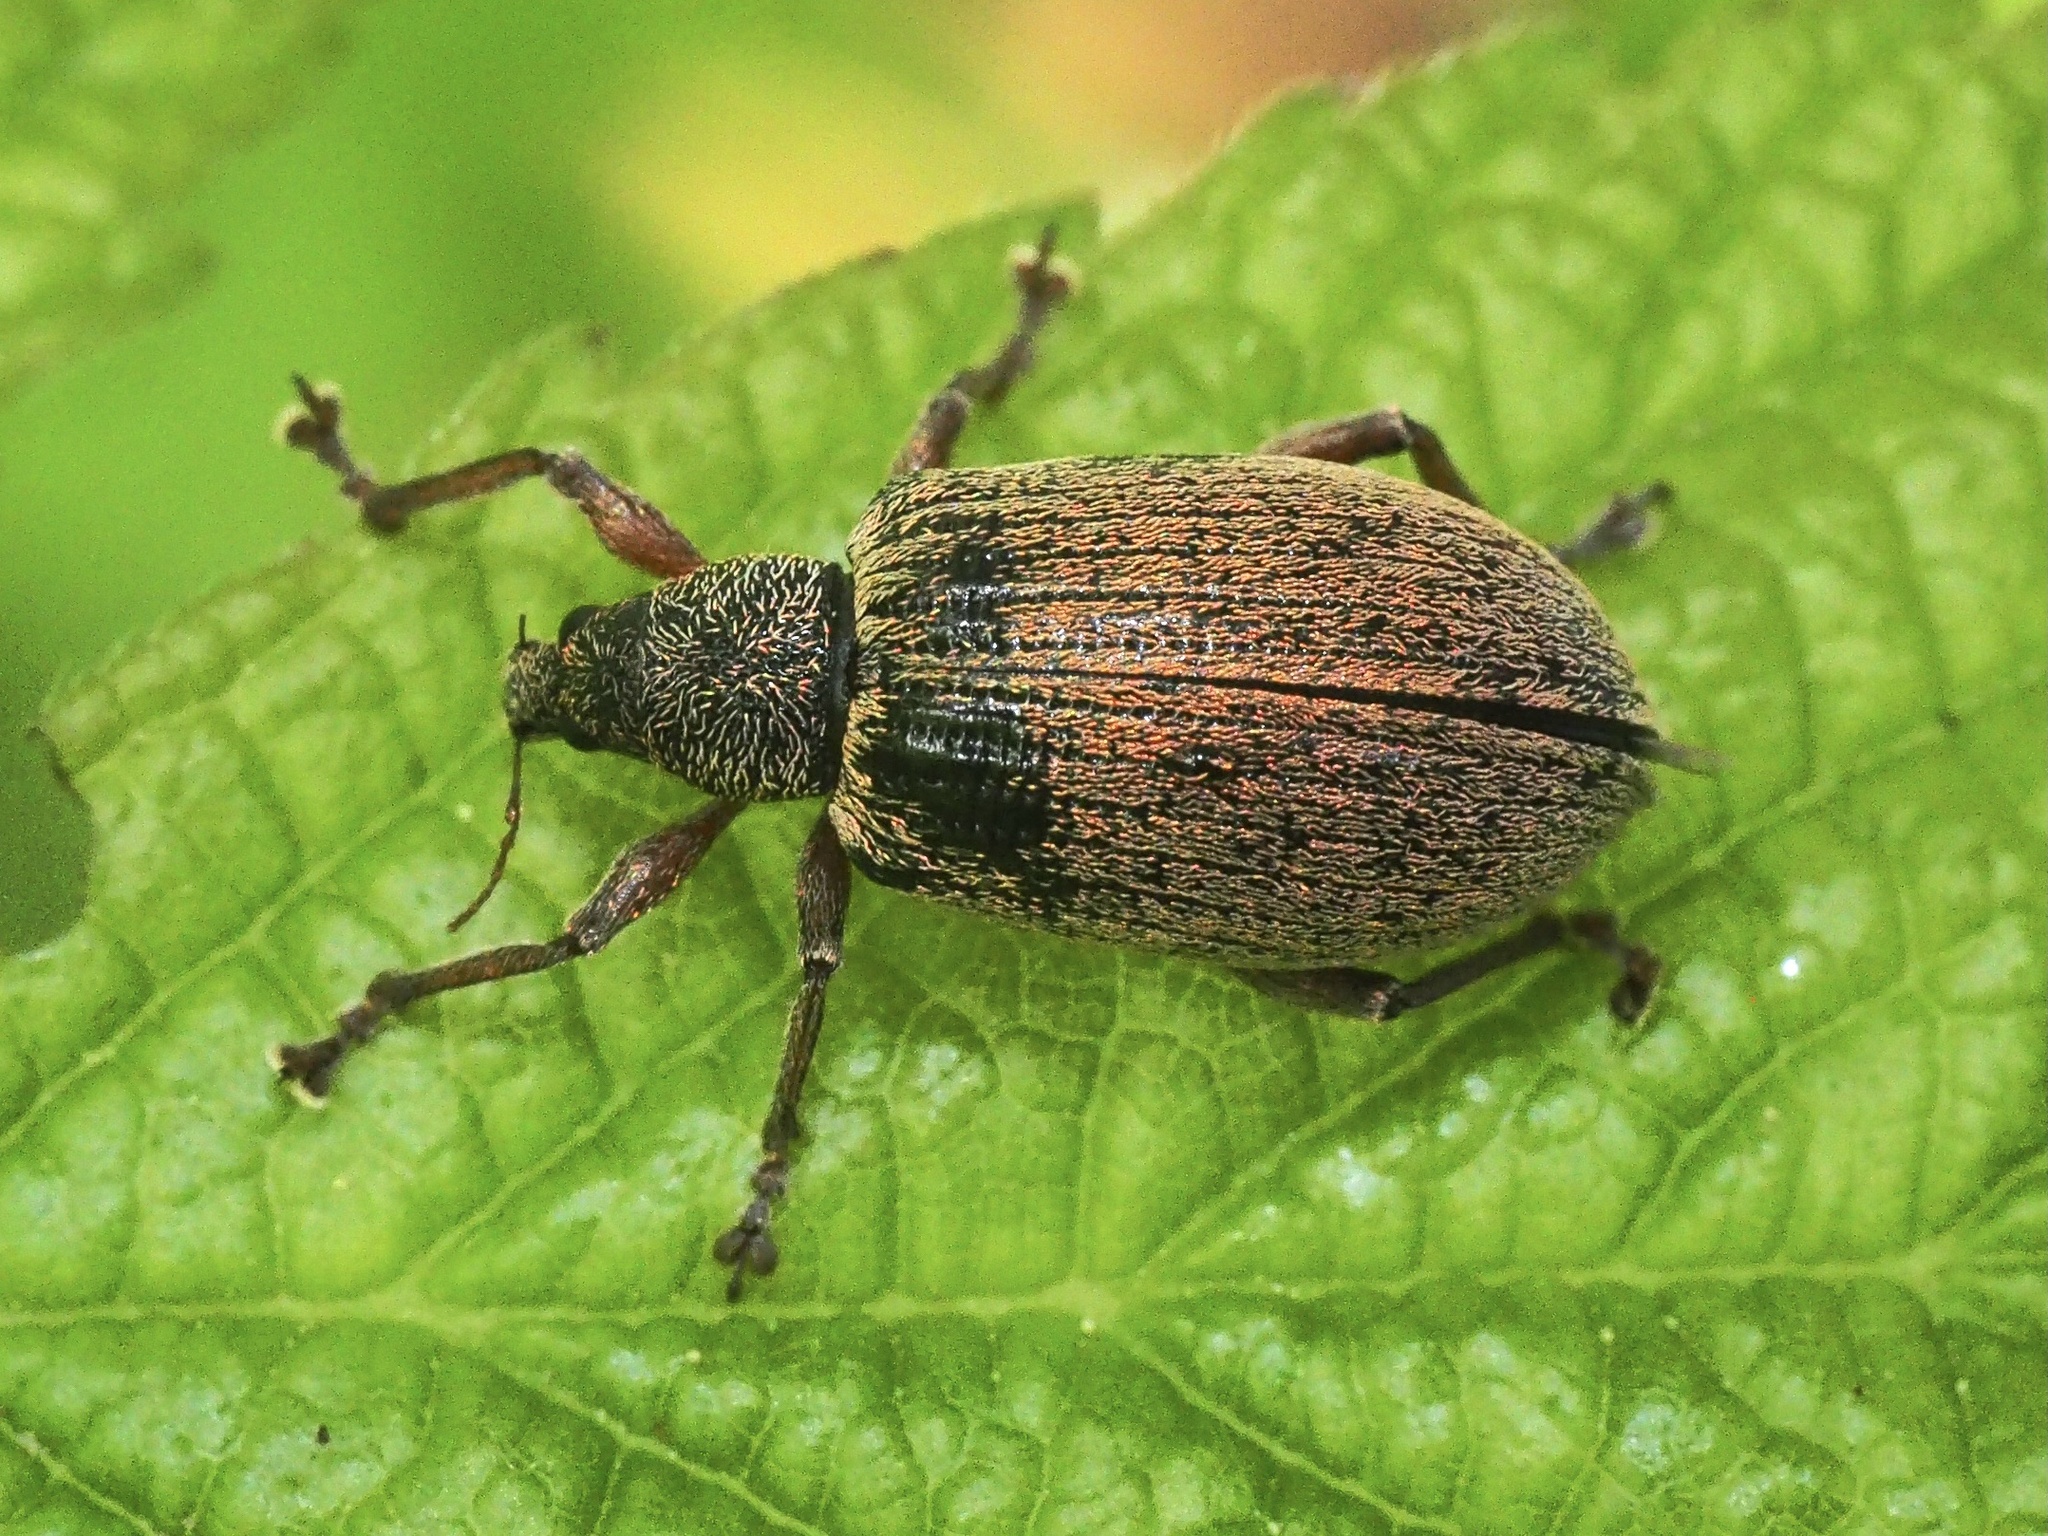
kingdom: Animalia
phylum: Arthropoda
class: Insecta
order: Coleoptera
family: Curculionidae
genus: Polydrusus
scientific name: Polydrusus mollis
